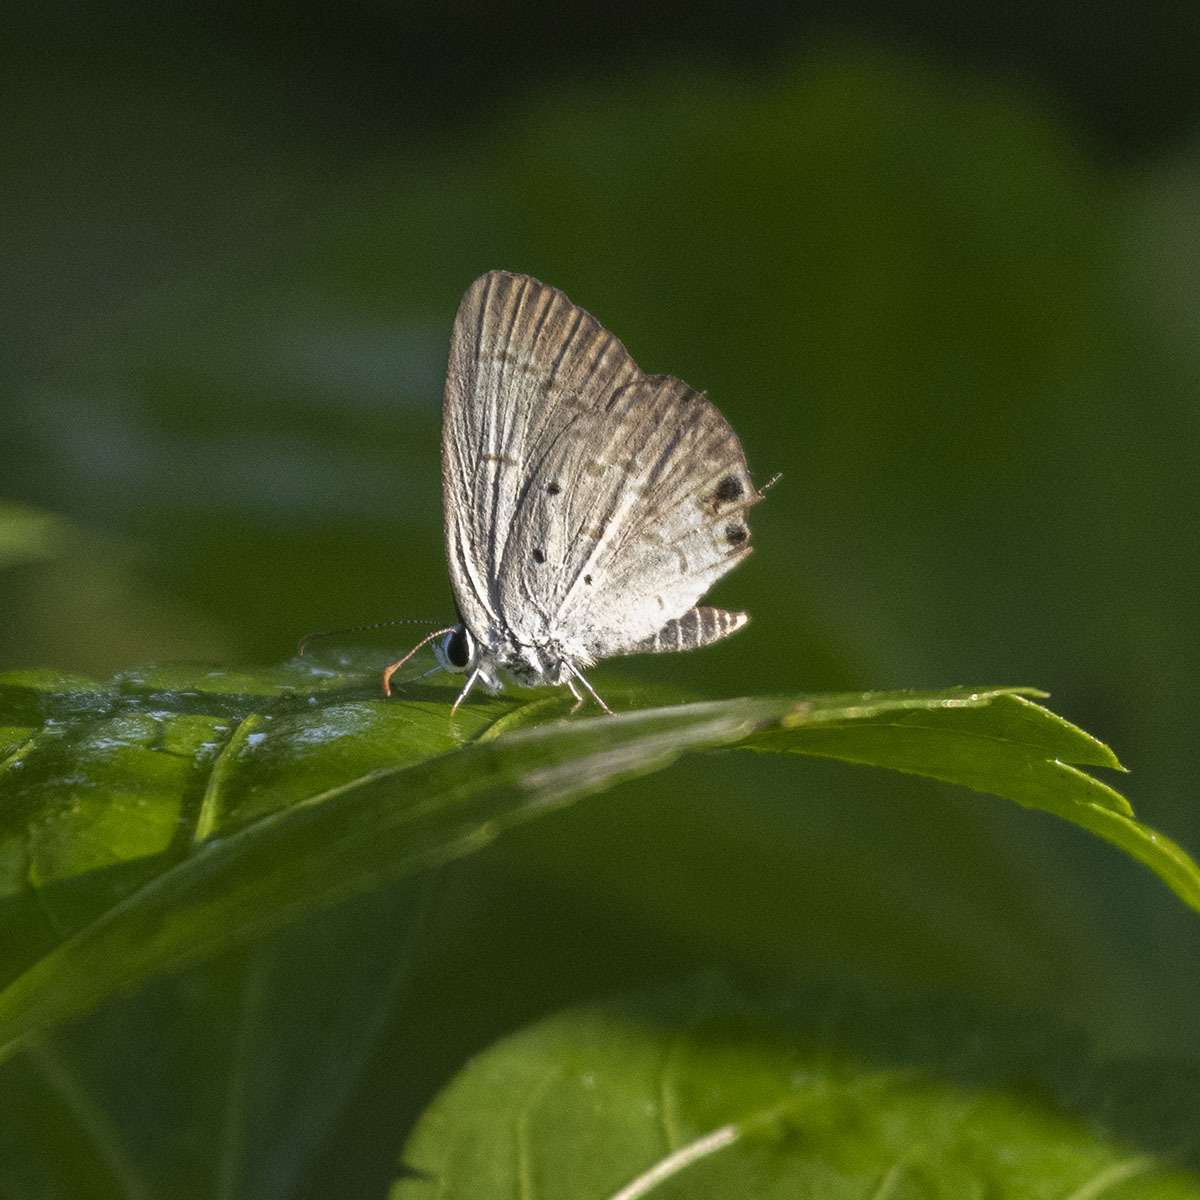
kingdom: Animalia
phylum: Arthropoda
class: Insecta
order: Lepidoptera
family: Lycaenidae
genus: Luthrodes
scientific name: Luthrodes pandava
